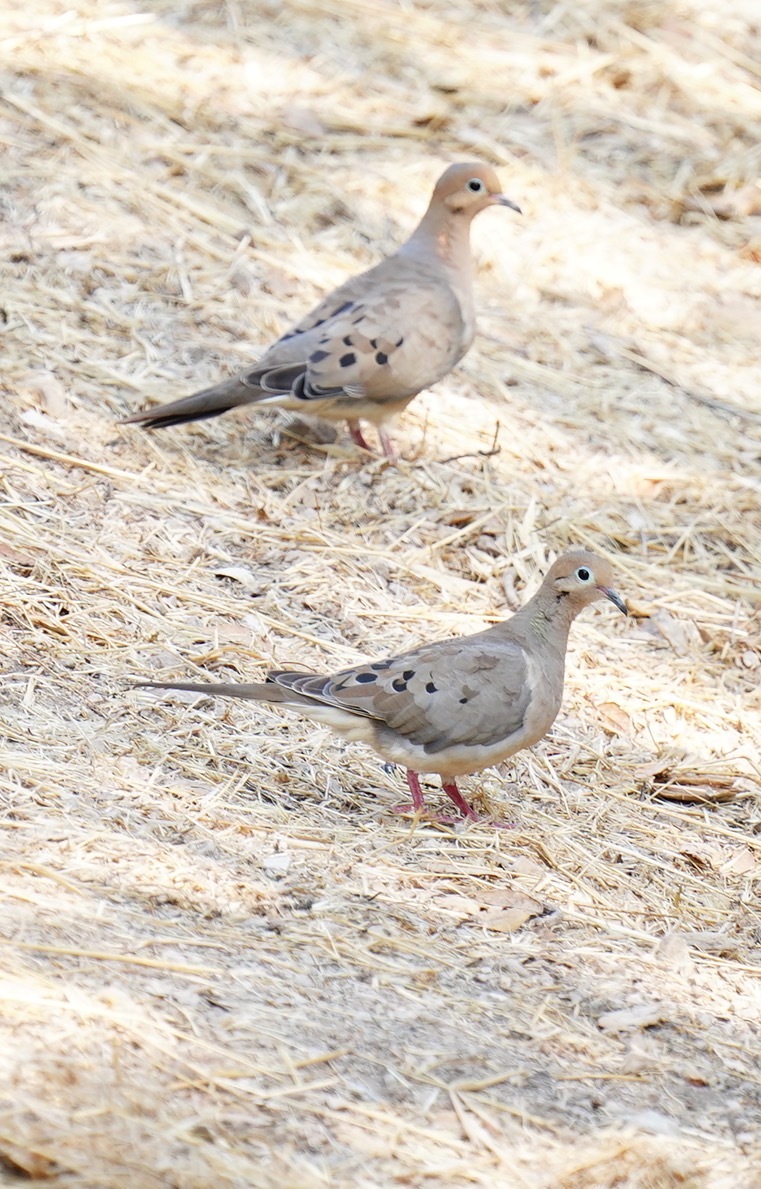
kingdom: Animalia
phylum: Chordata
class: Aves
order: Columbiformes
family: Columbidae
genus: Zenaida
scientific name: Zenaida macroura
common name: Mourning dove
